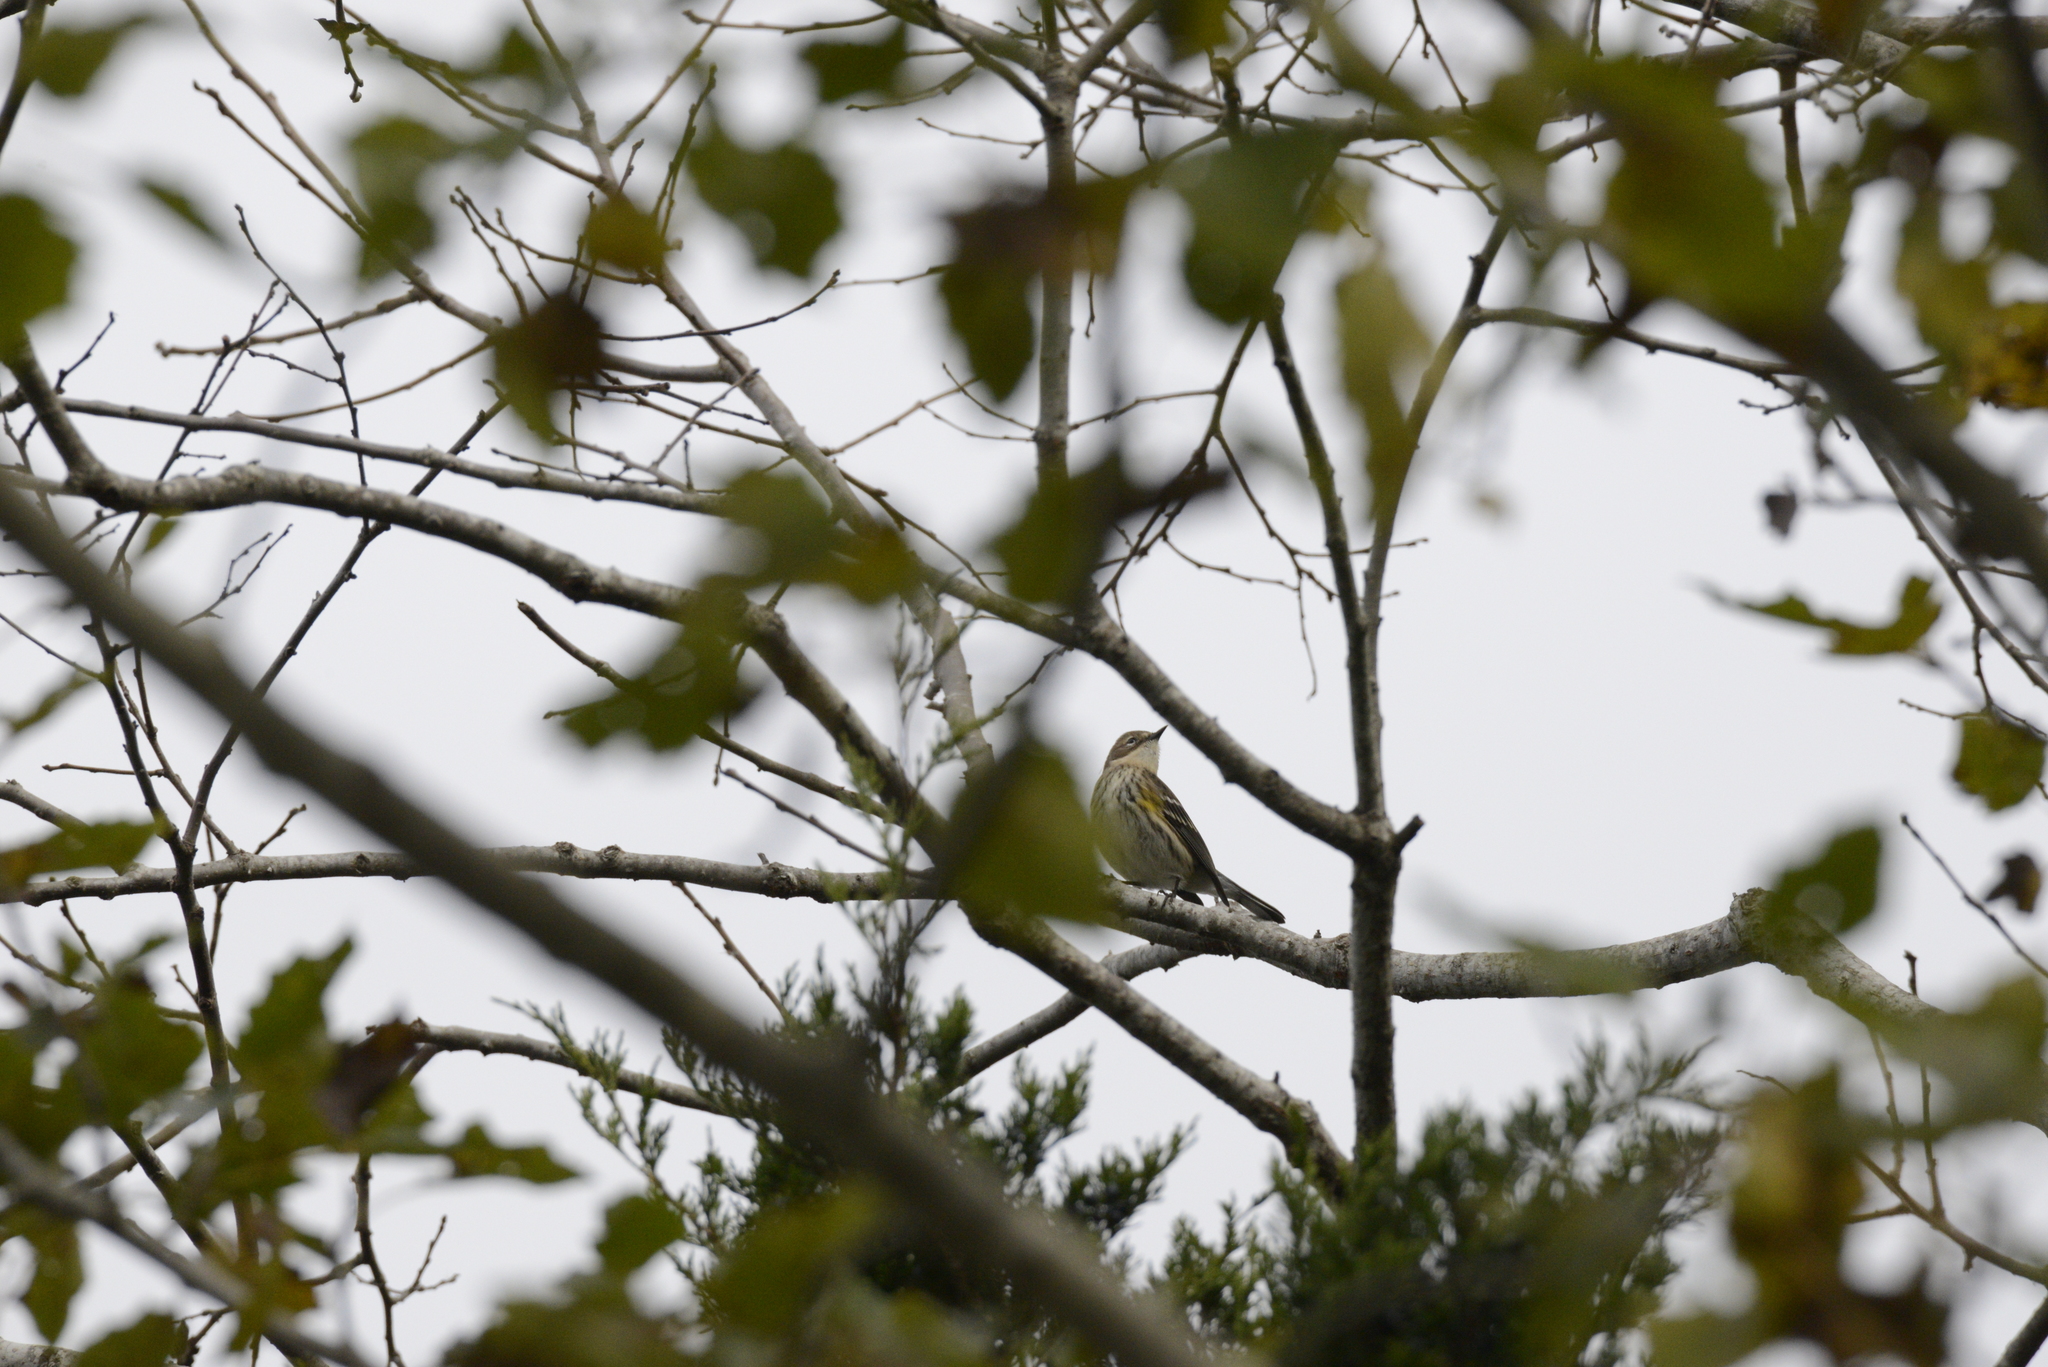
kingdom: Animalia
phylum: Chordata
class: Aves
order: Passeriformes
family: Parulidae
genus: Setophaga
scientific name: Setophaga coronata
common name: Myrtle warbler
